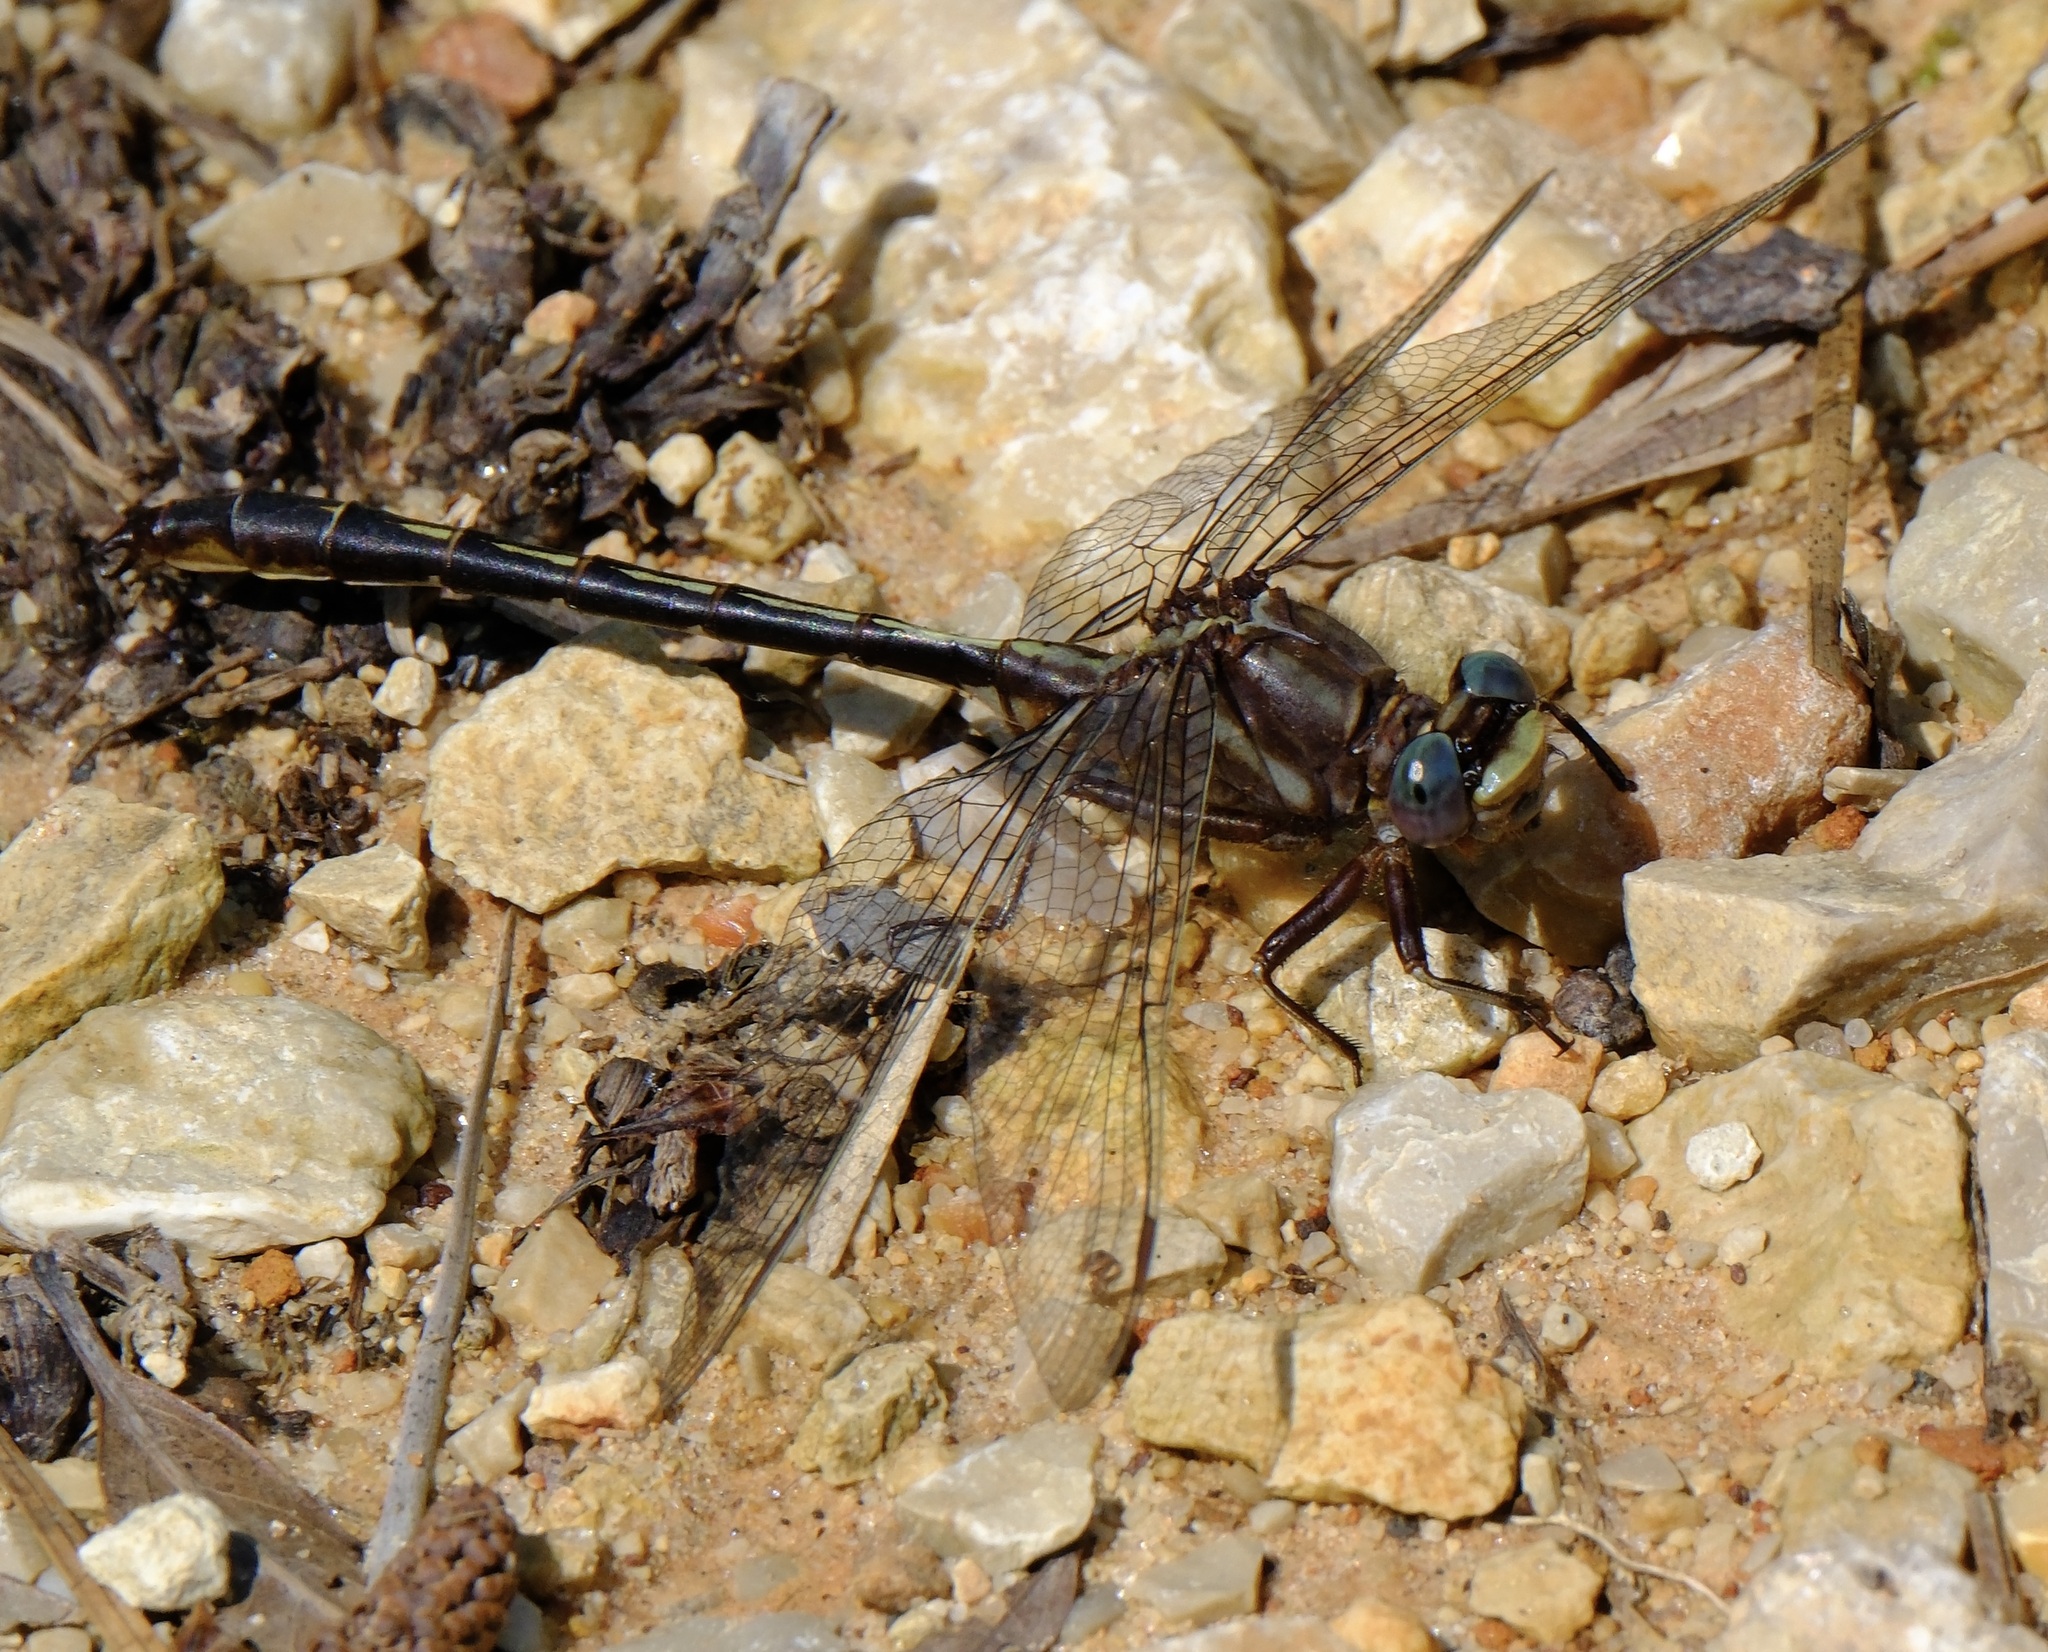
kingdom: Animalia
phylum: Arthropoda
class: Insecta
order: Odonata
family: Gomphidae
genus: Phanogomphus
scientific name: Phanogomphus lividus
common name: Ashy clubtail
